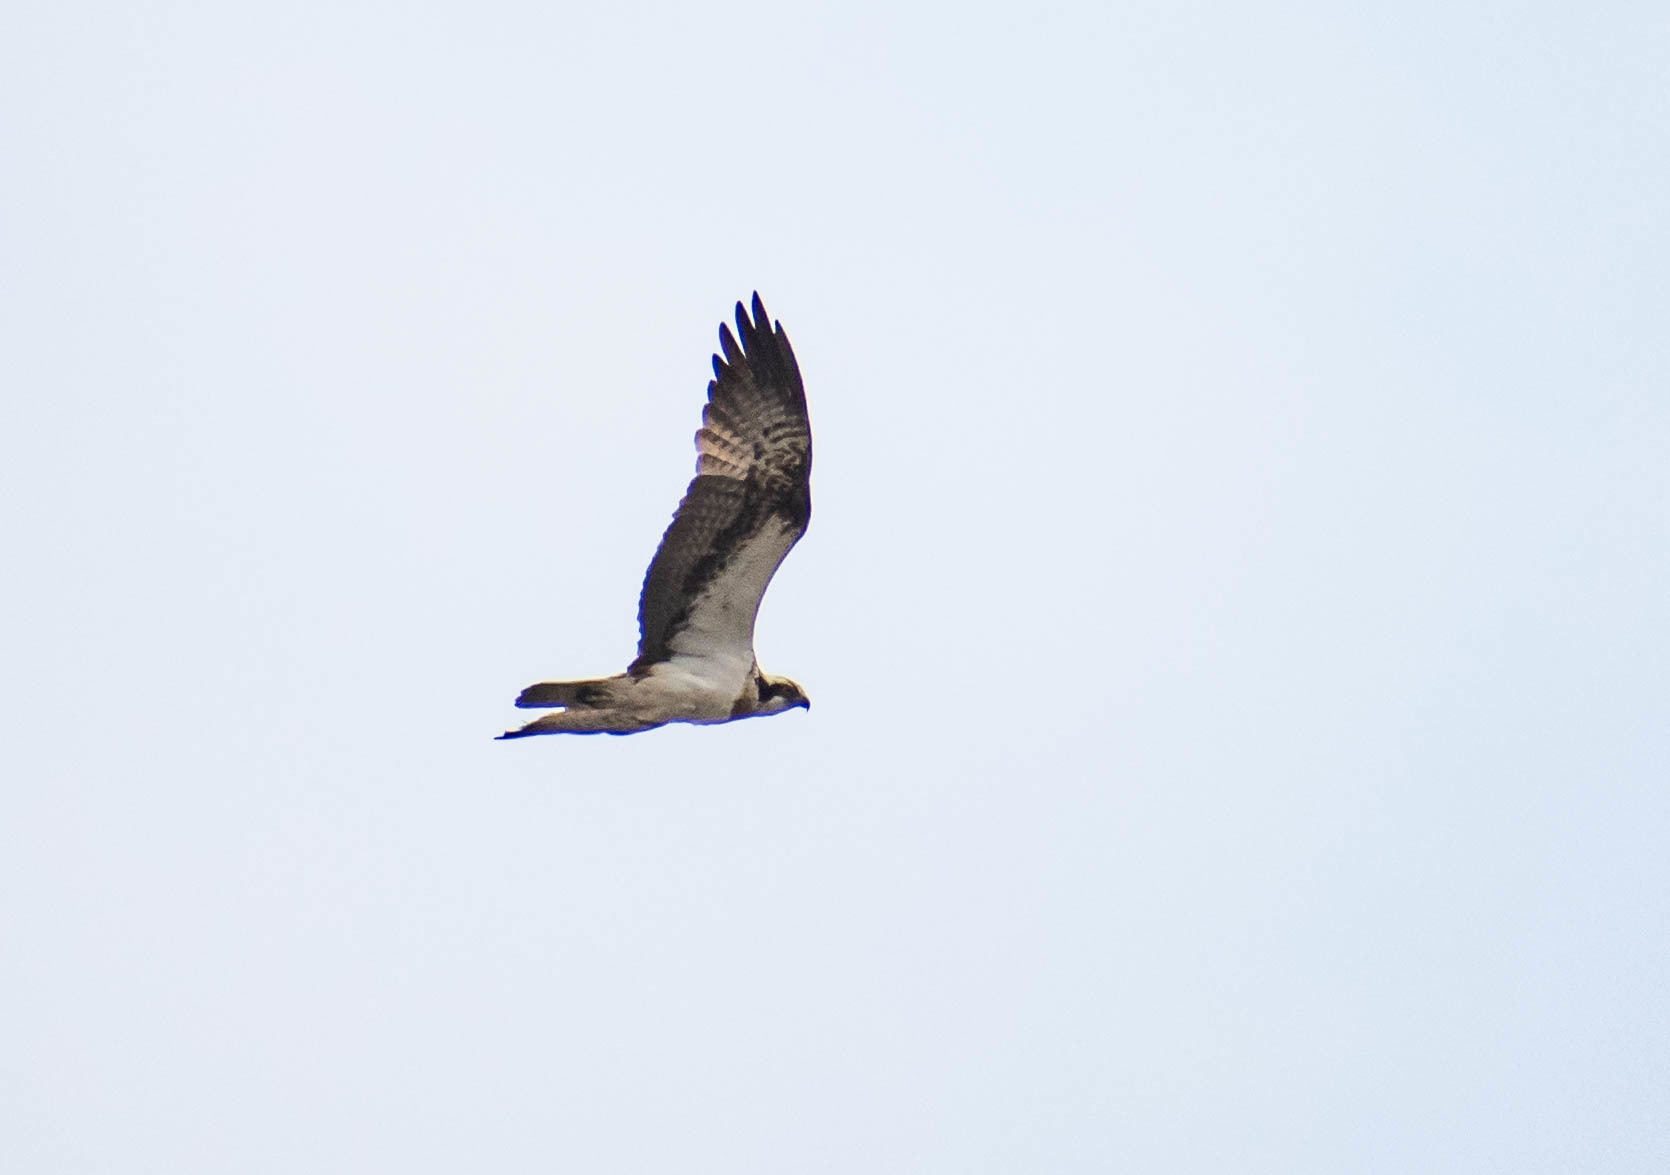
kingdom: Animalia
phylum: Chordata
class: Aves
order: Accipitriformes
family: Pandionidae
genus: Pandion
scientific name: Pandion haliaetus
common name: Osprey
